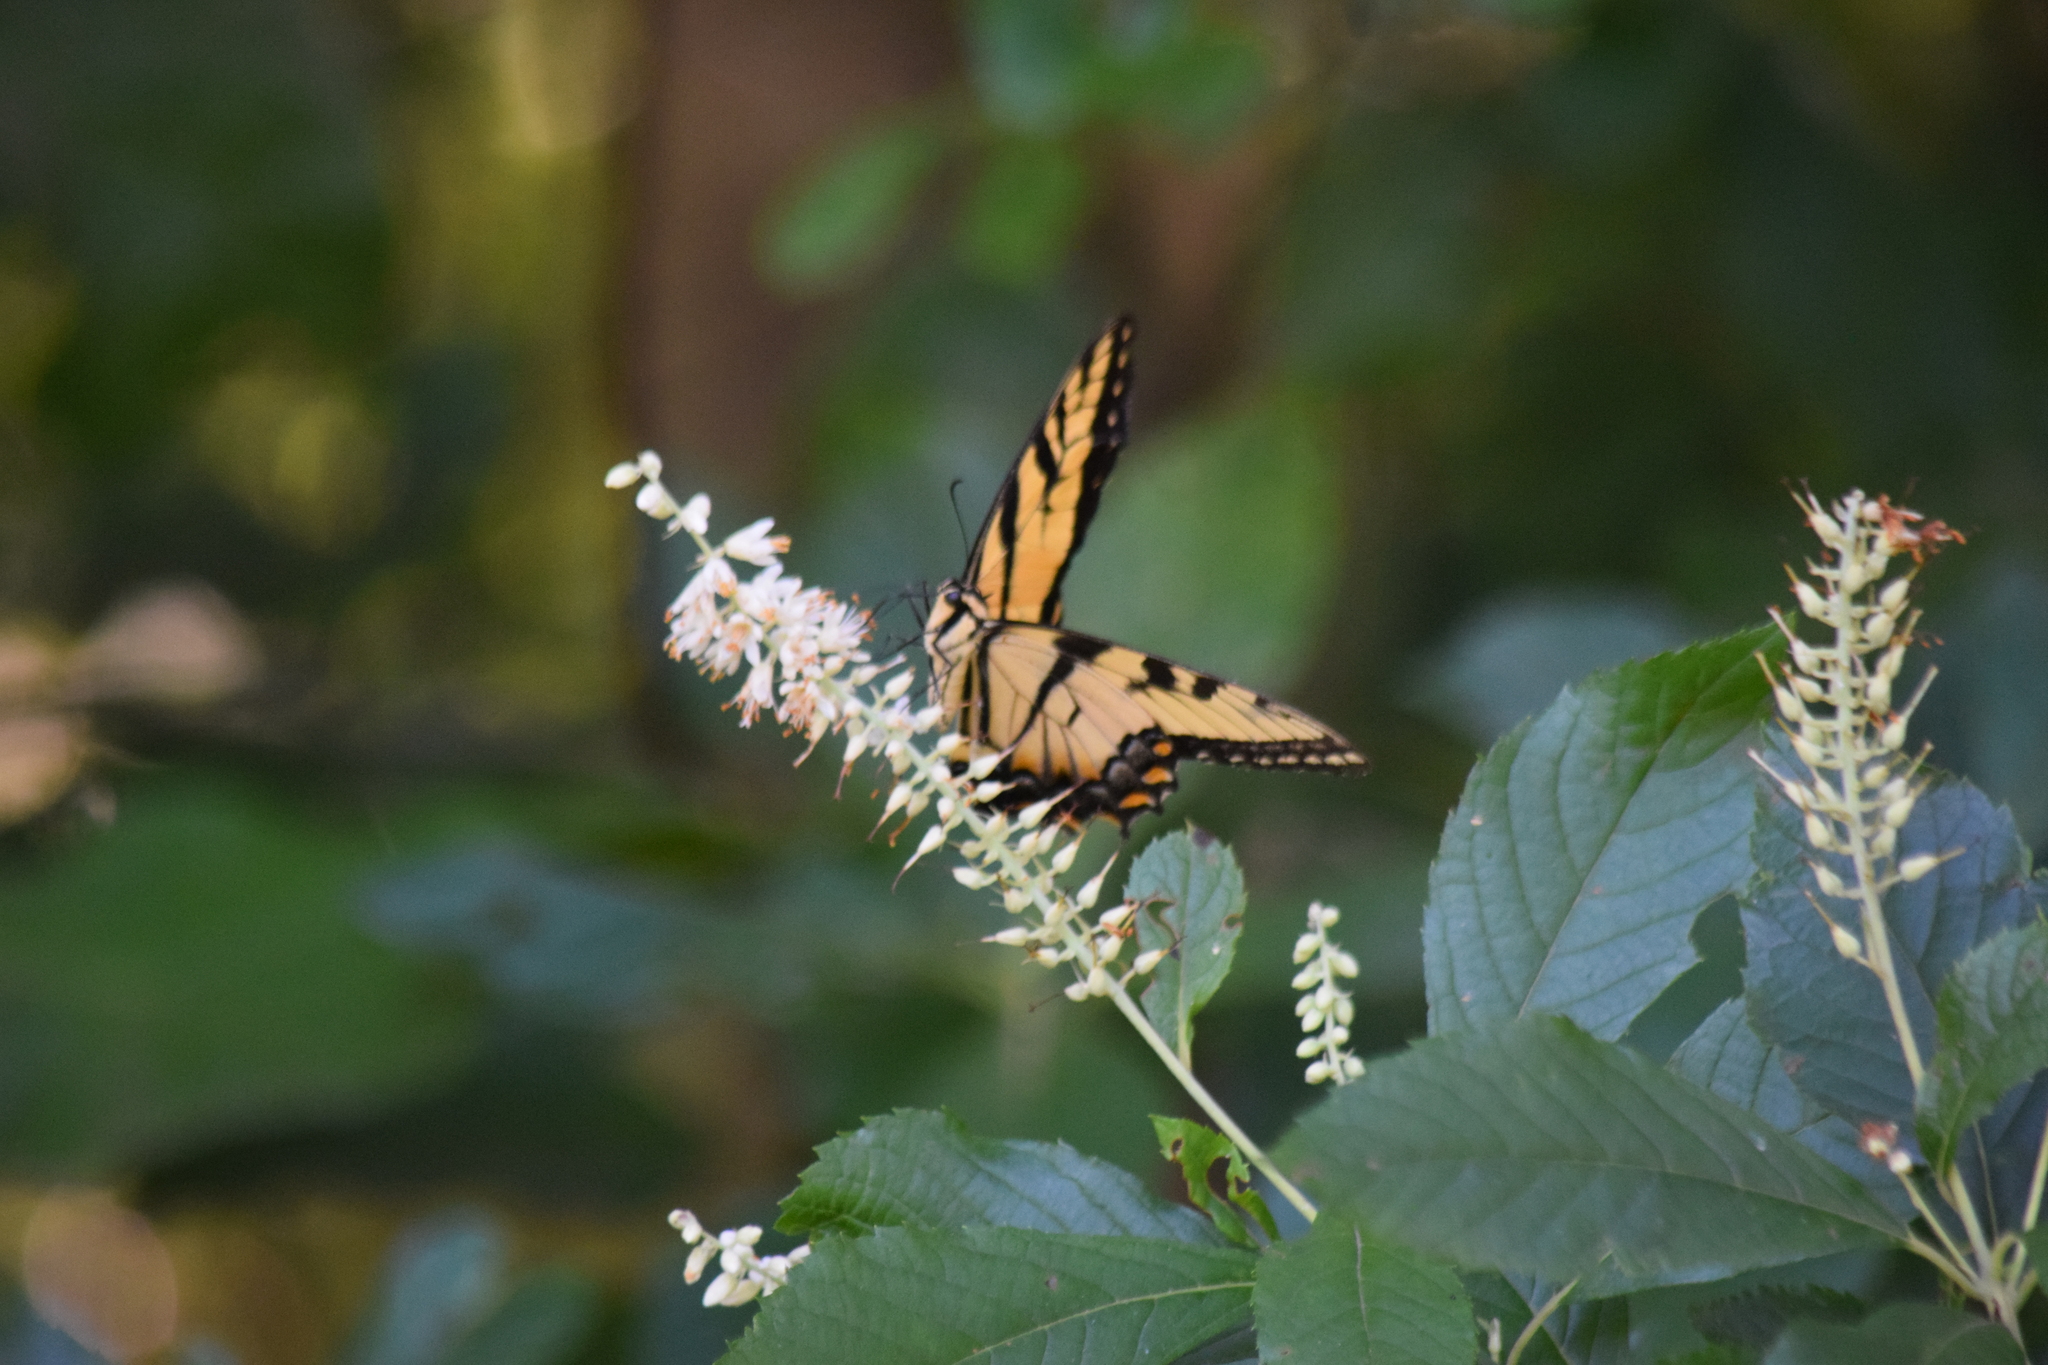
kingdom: Animalia
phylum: Arthropoda
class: Insecta
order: Lepidoptera
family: Papilionidae
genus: Papilio
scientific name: Papilio glaucus
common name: Tiger swallowtail
